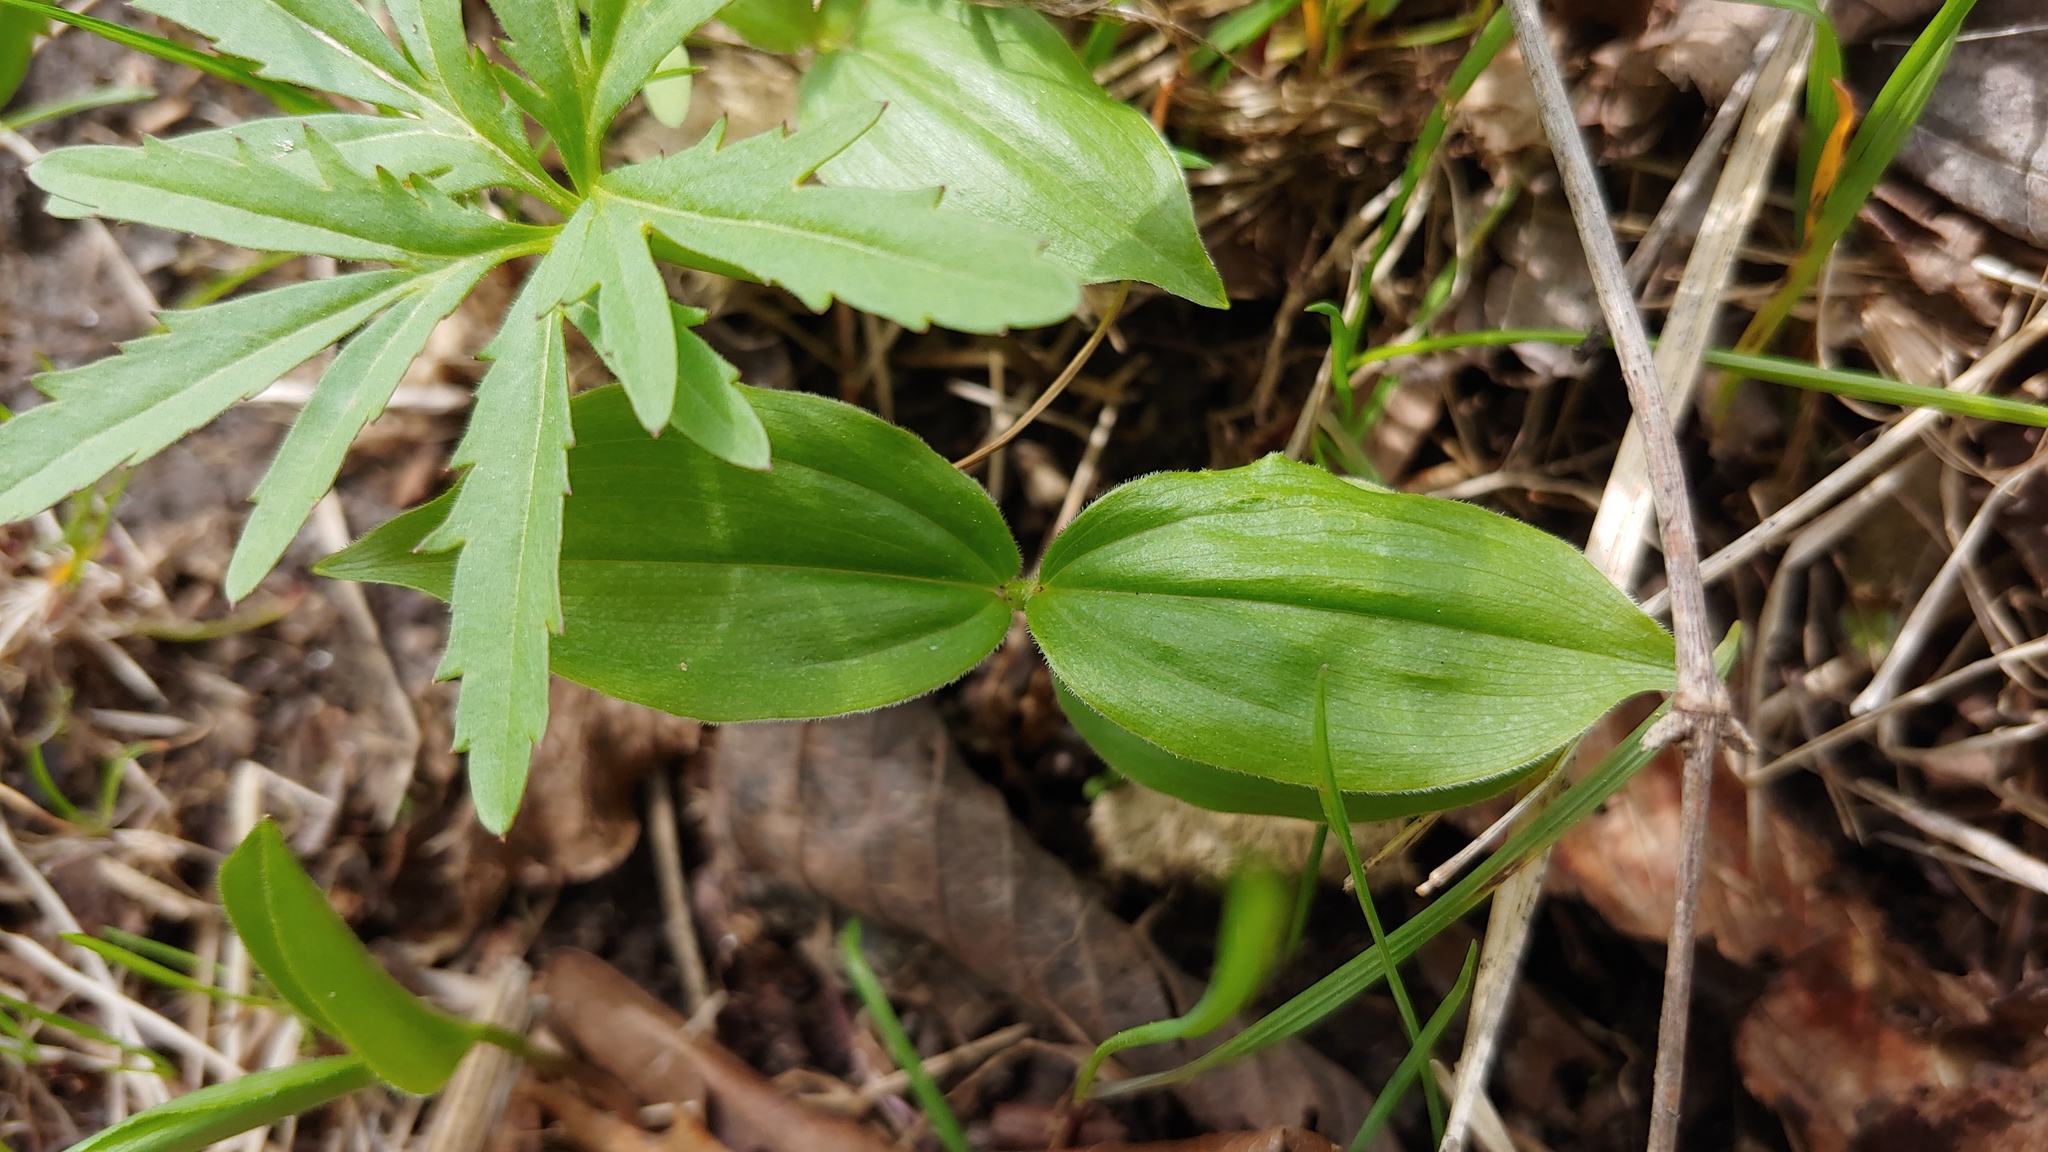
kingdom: Plantae
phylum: Tracheophyta
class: Liliopsida
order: Asparagales
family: Asparagaceae
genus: Maianthemum
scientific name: Maianthemum racemosum
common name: False spikenard
